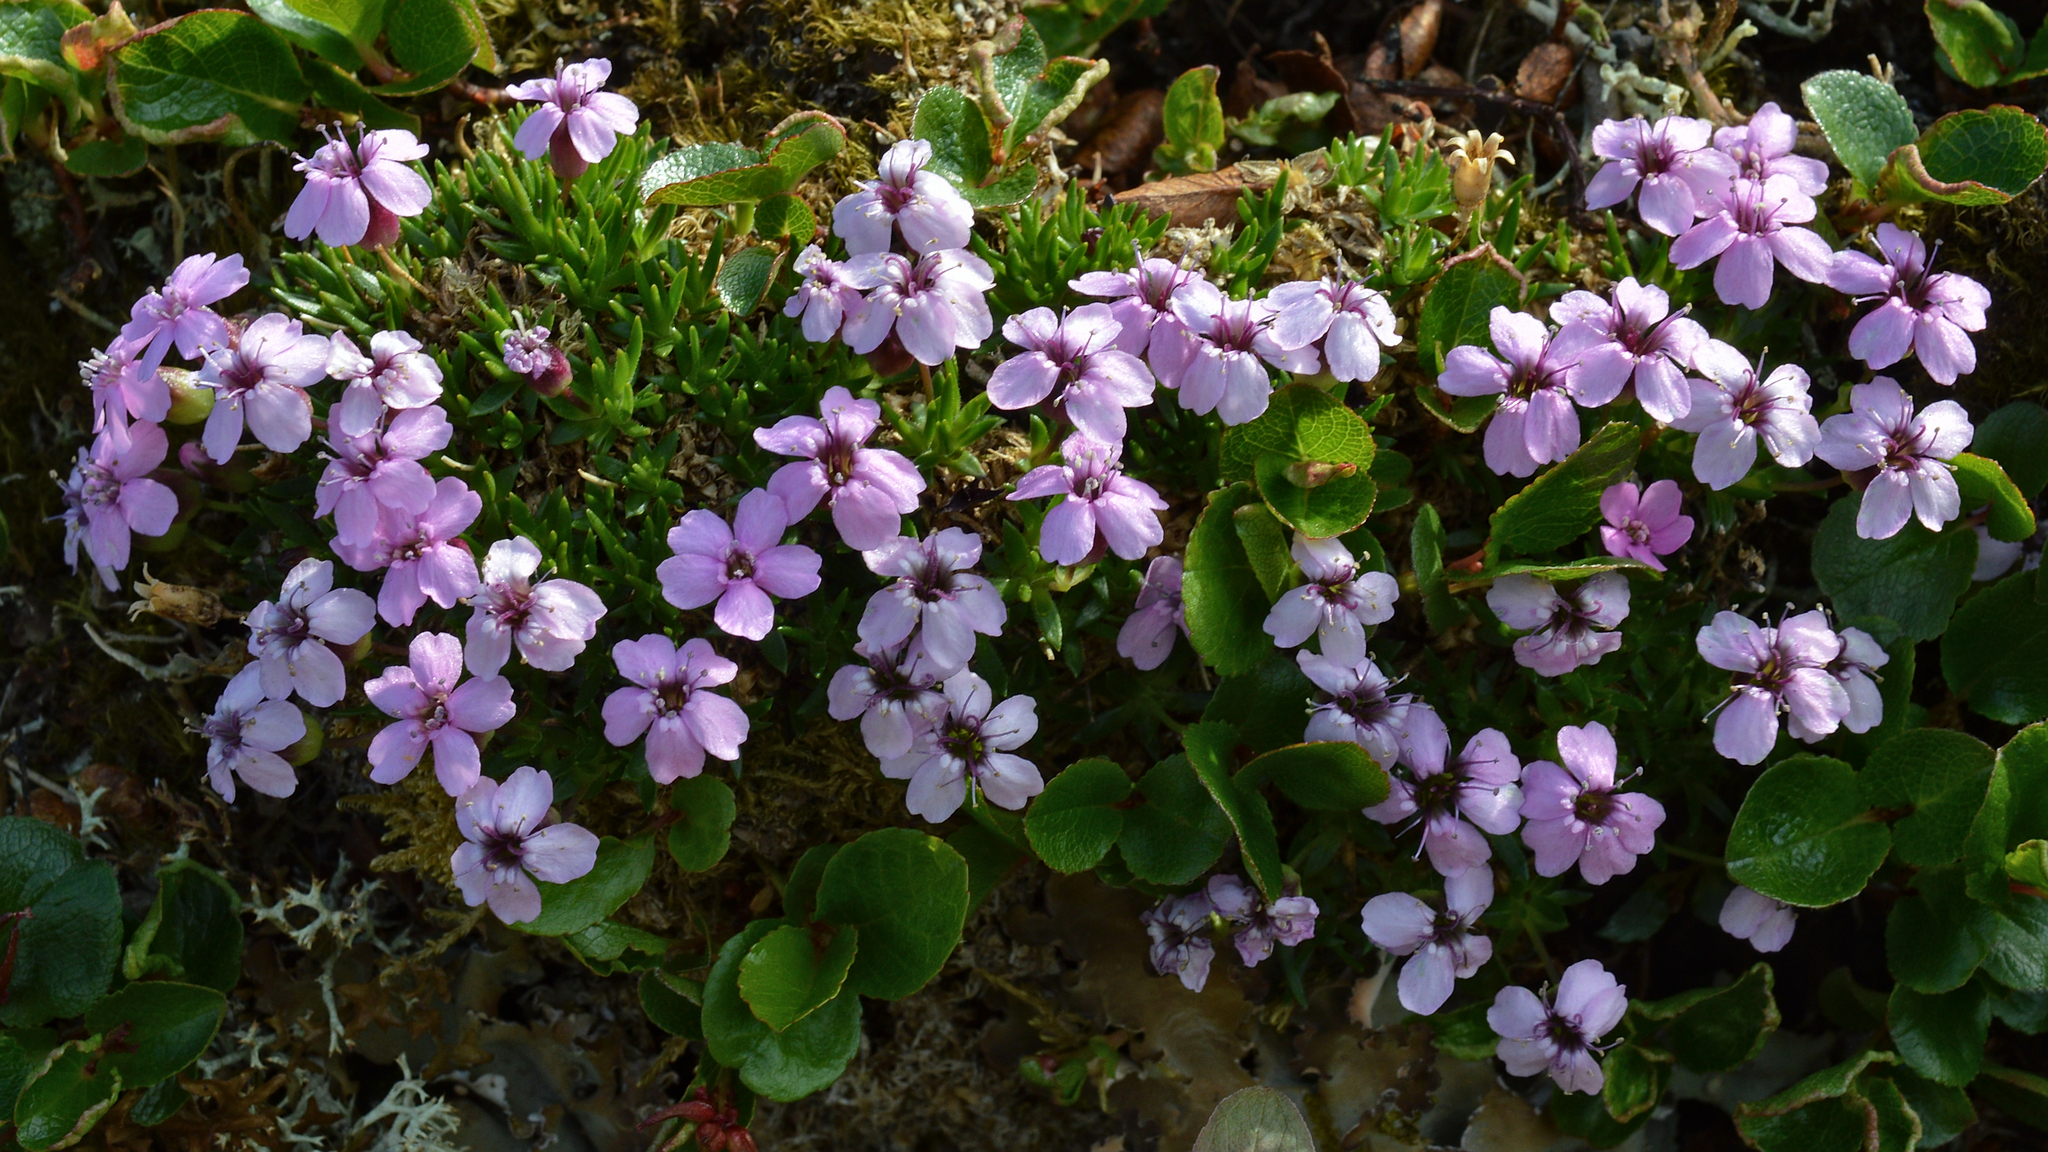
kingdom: Plantae
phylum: Tracheophyta
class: Magnoliopsida
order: Caryophyllales
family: Caryophyllaceae
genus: Silene
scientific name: Silene acaulis
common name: Moss campion
